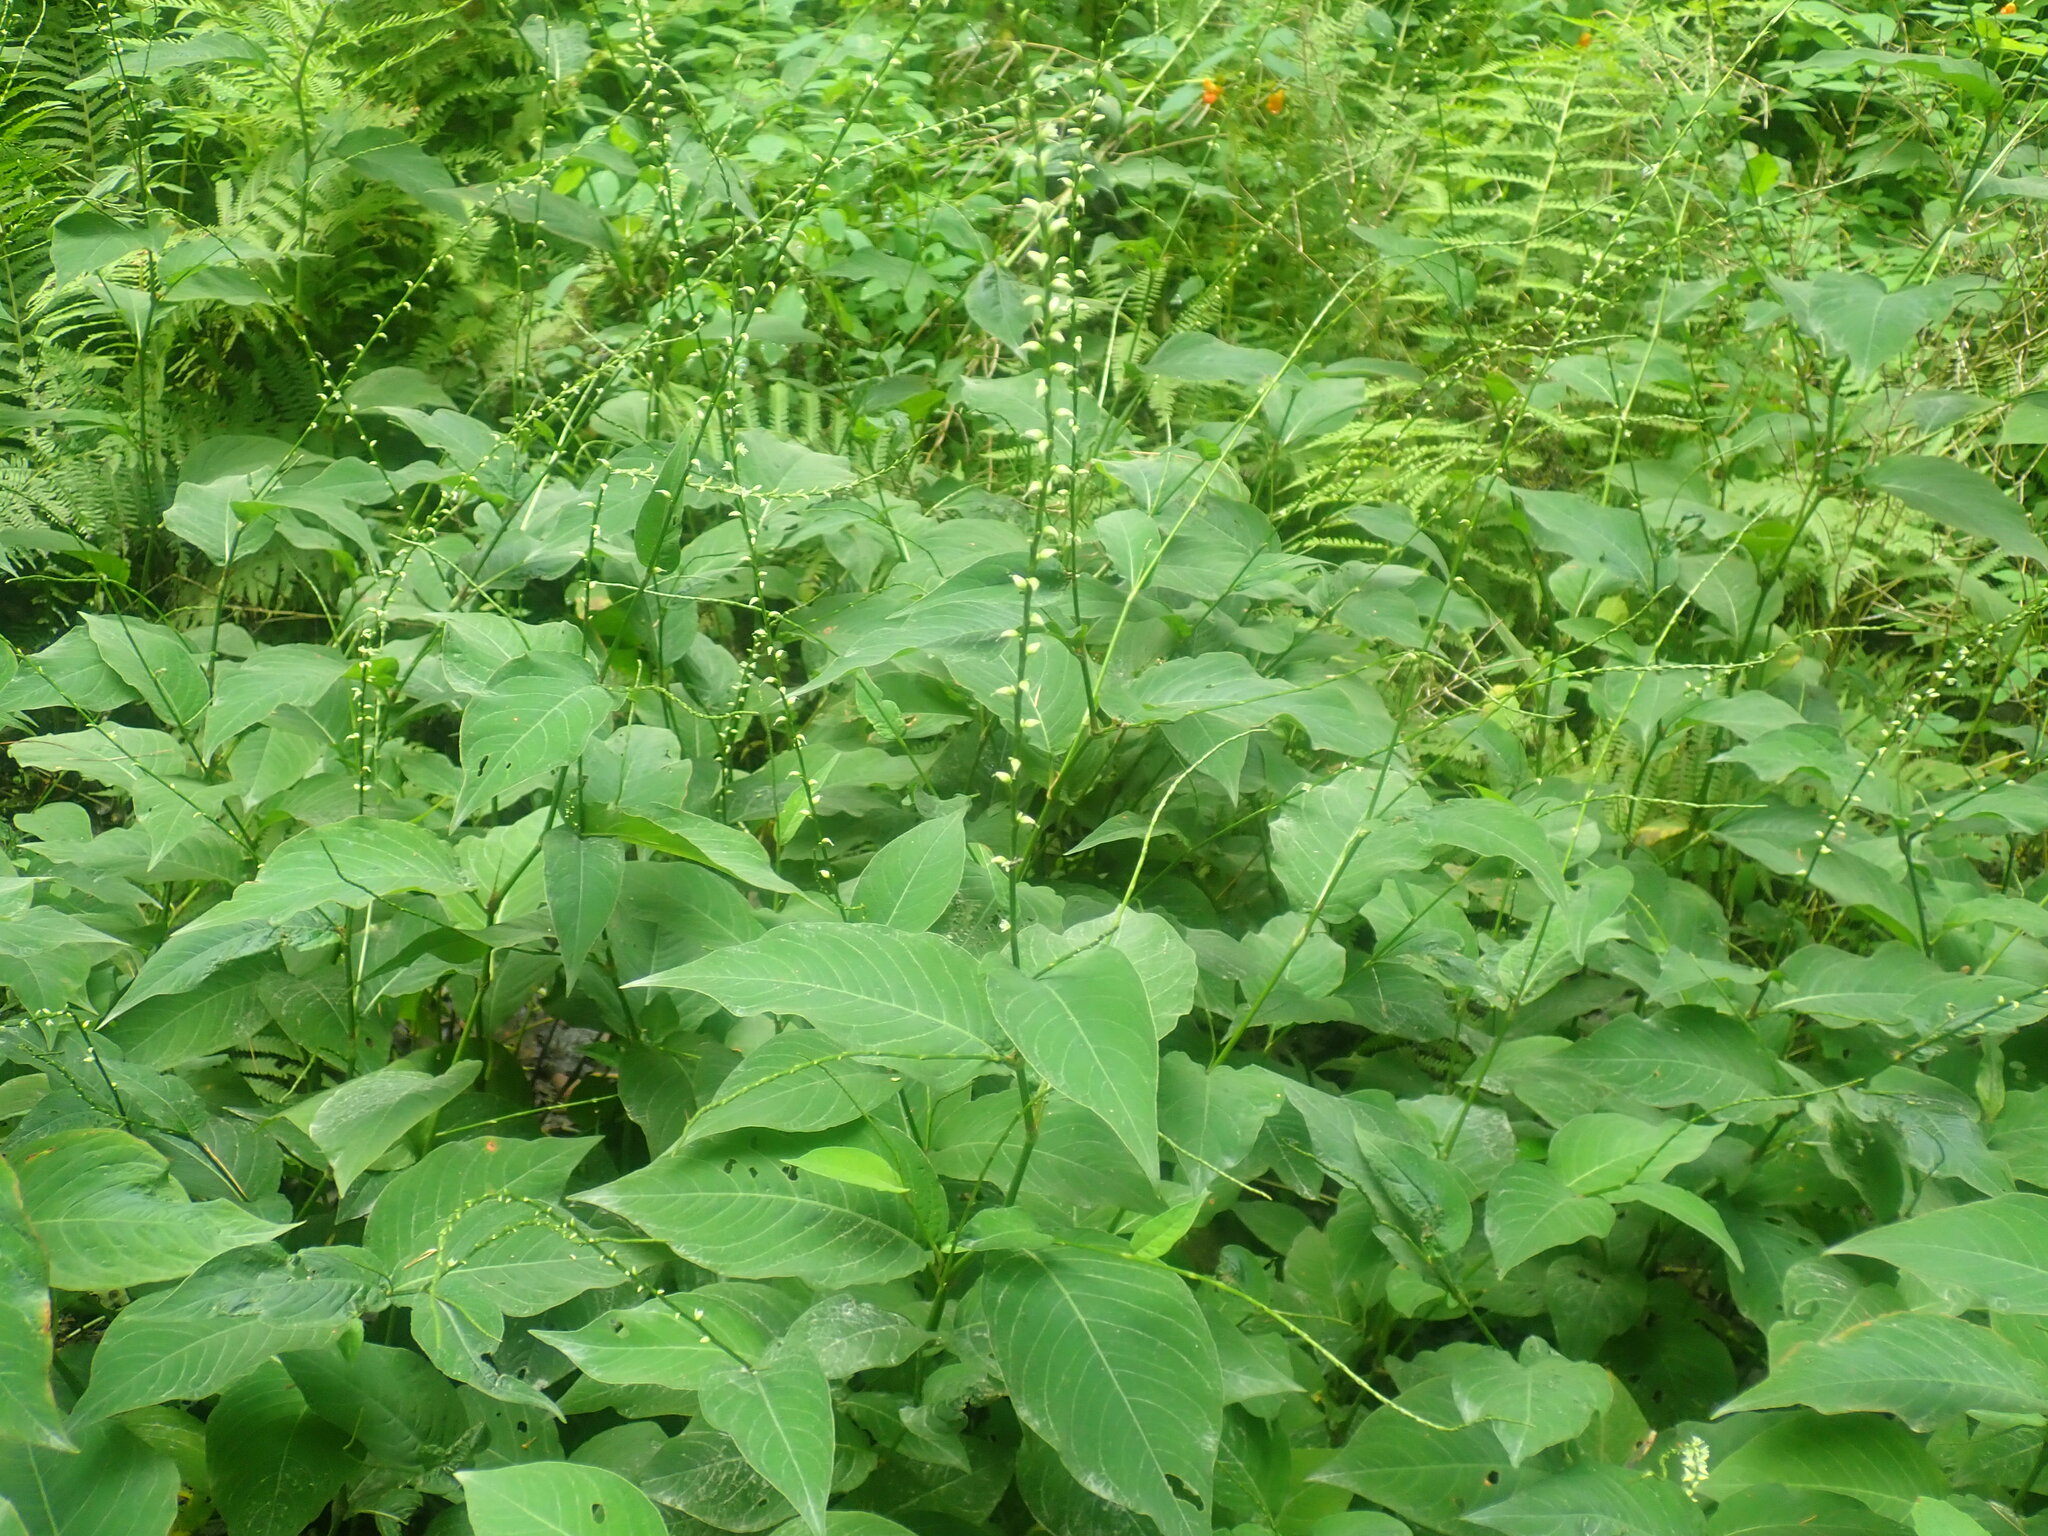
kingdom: Plantae
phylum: Tracheophyta
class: Magnoliopsida
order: Caryophyllales
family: Polygonaceae
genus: Persicaria
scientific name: Persicaria virginiana
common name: Jumpseed
